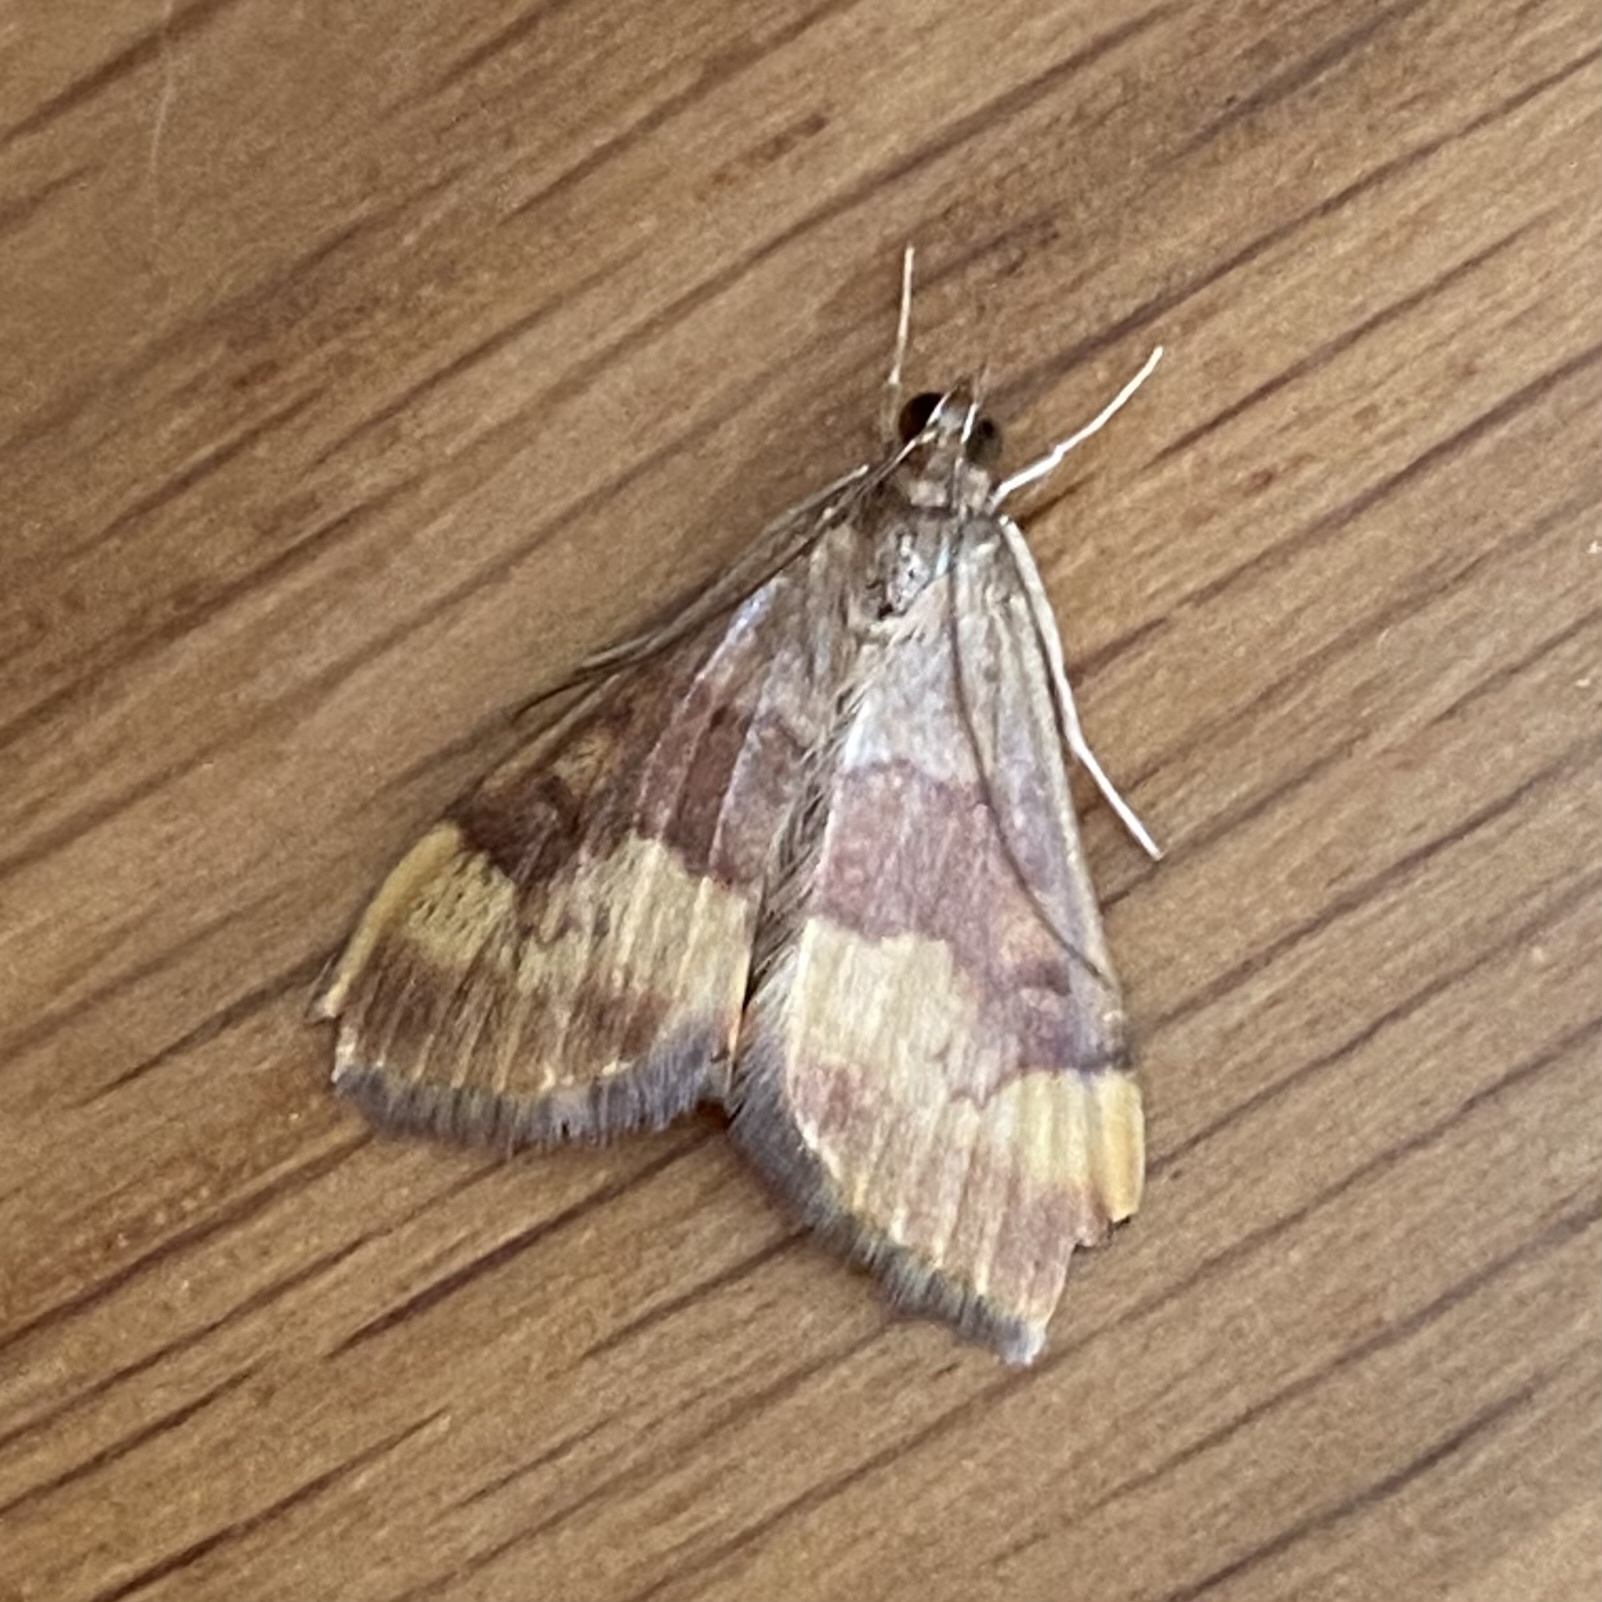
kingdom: Animalia
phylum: Arthropoda
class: Insecta
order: Lepidoptera
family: Crambidae
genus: Pyrausta
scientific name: Pyrausta flavofascialis
